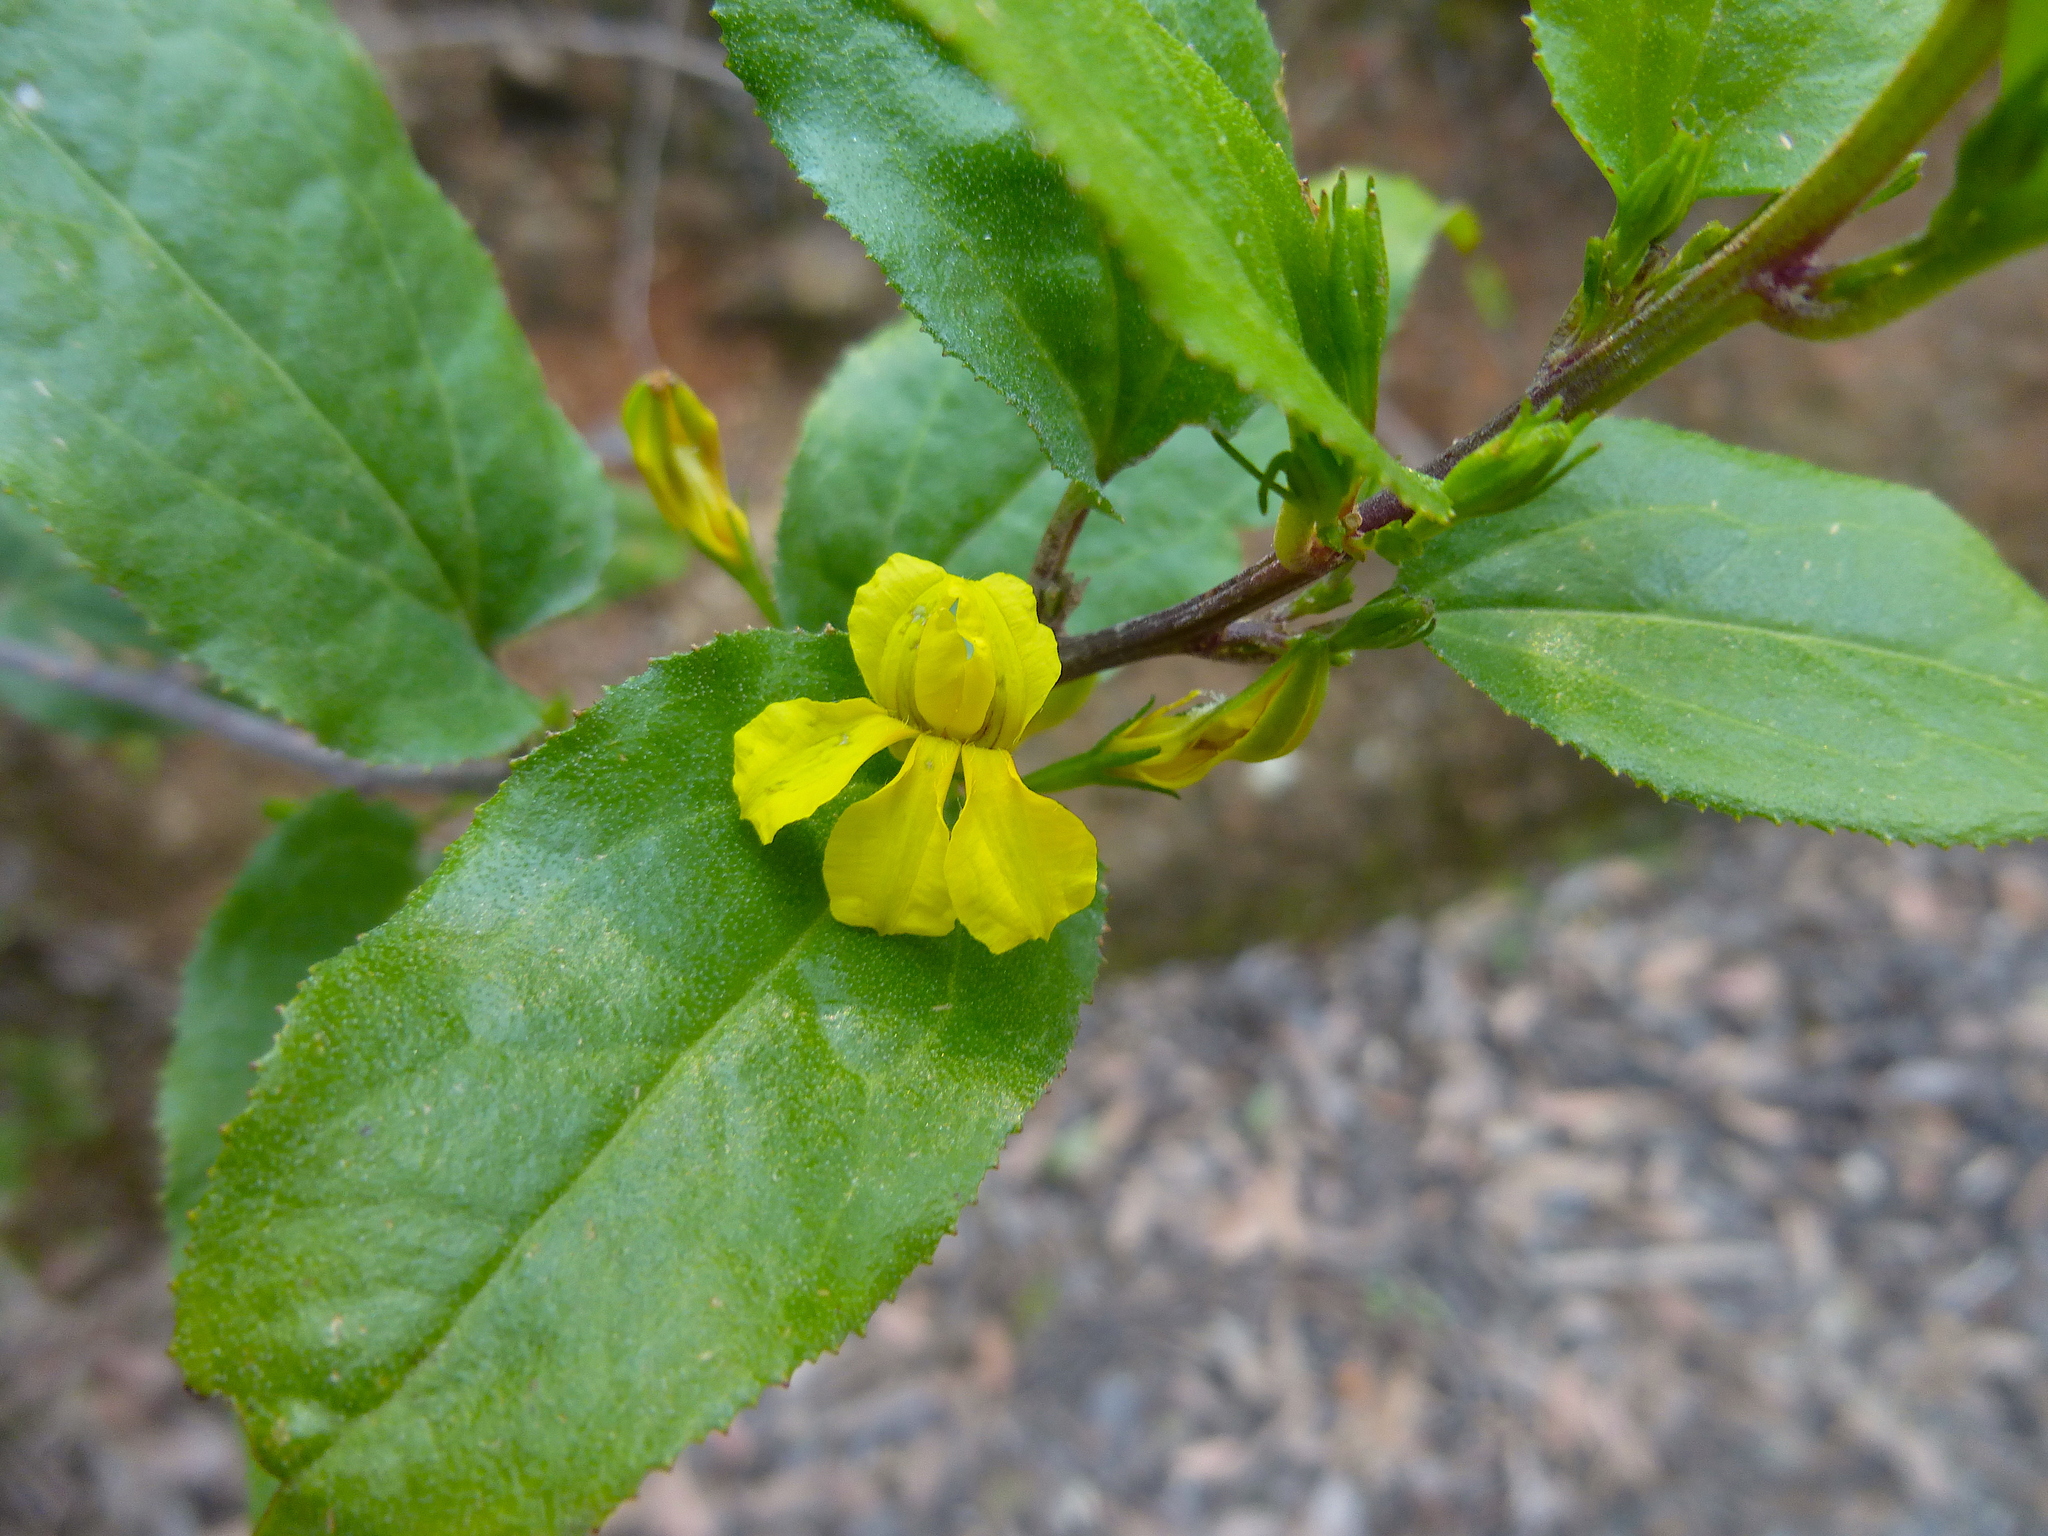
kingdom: Plantae
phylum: Tracheophyta
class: Magnoliopsida
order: Asterales
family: Goodeniaceae
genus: Goodenia
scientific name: Goodenia ovata
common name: Hop goodenia
